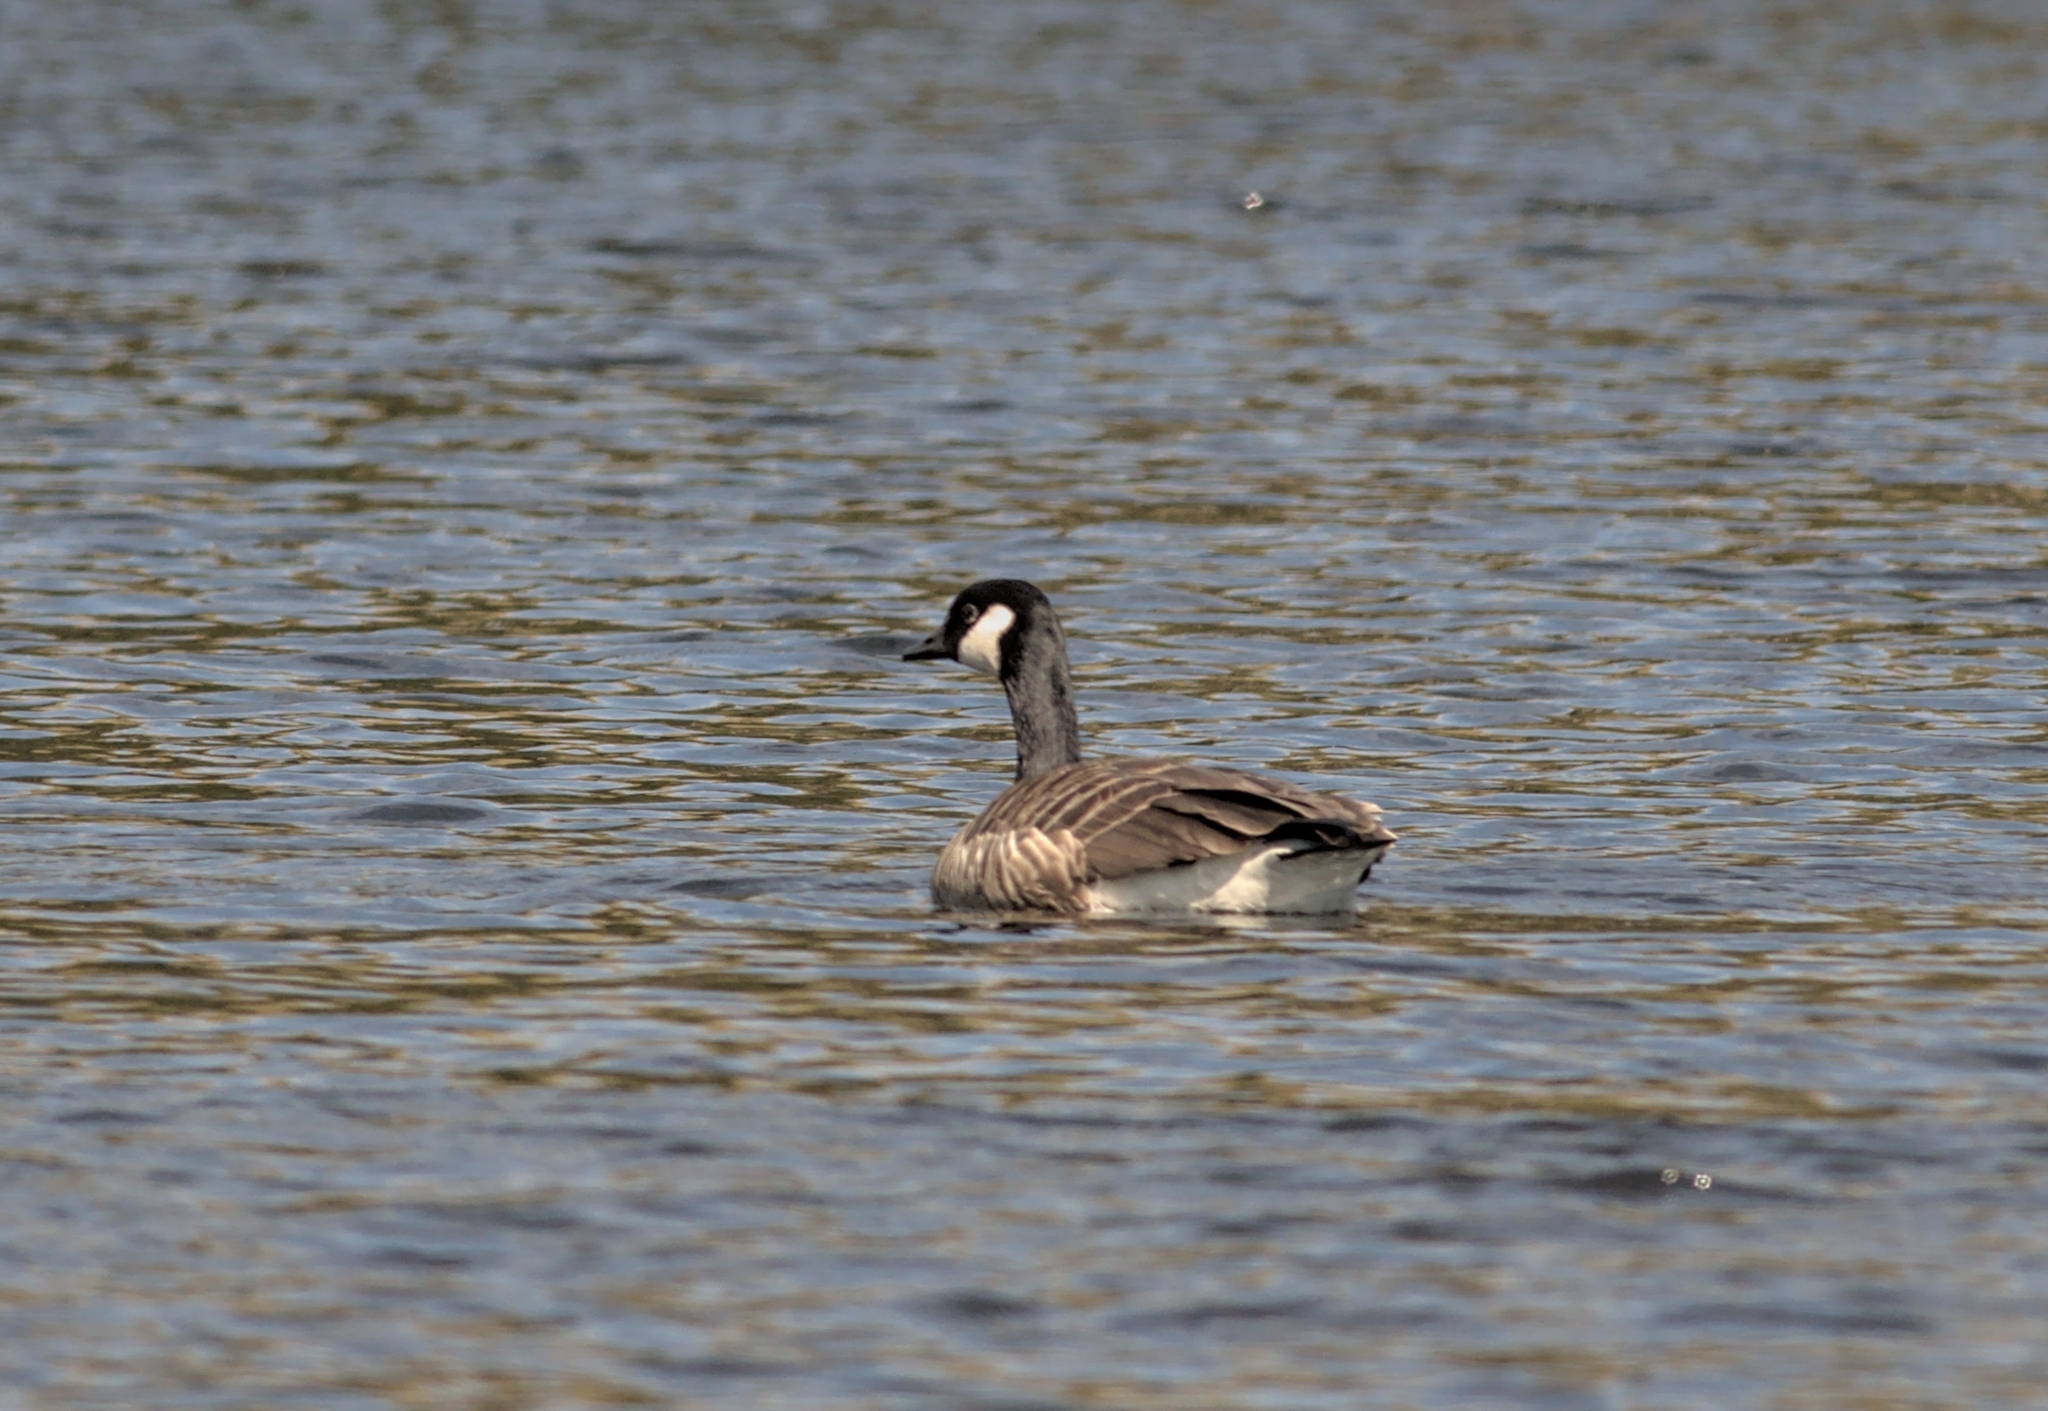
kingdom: Animalia
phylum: Chordata
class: Aves
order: Anseriformes
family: Anatidae
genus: Branta
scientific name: Branta canadensis
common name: Canada goose
